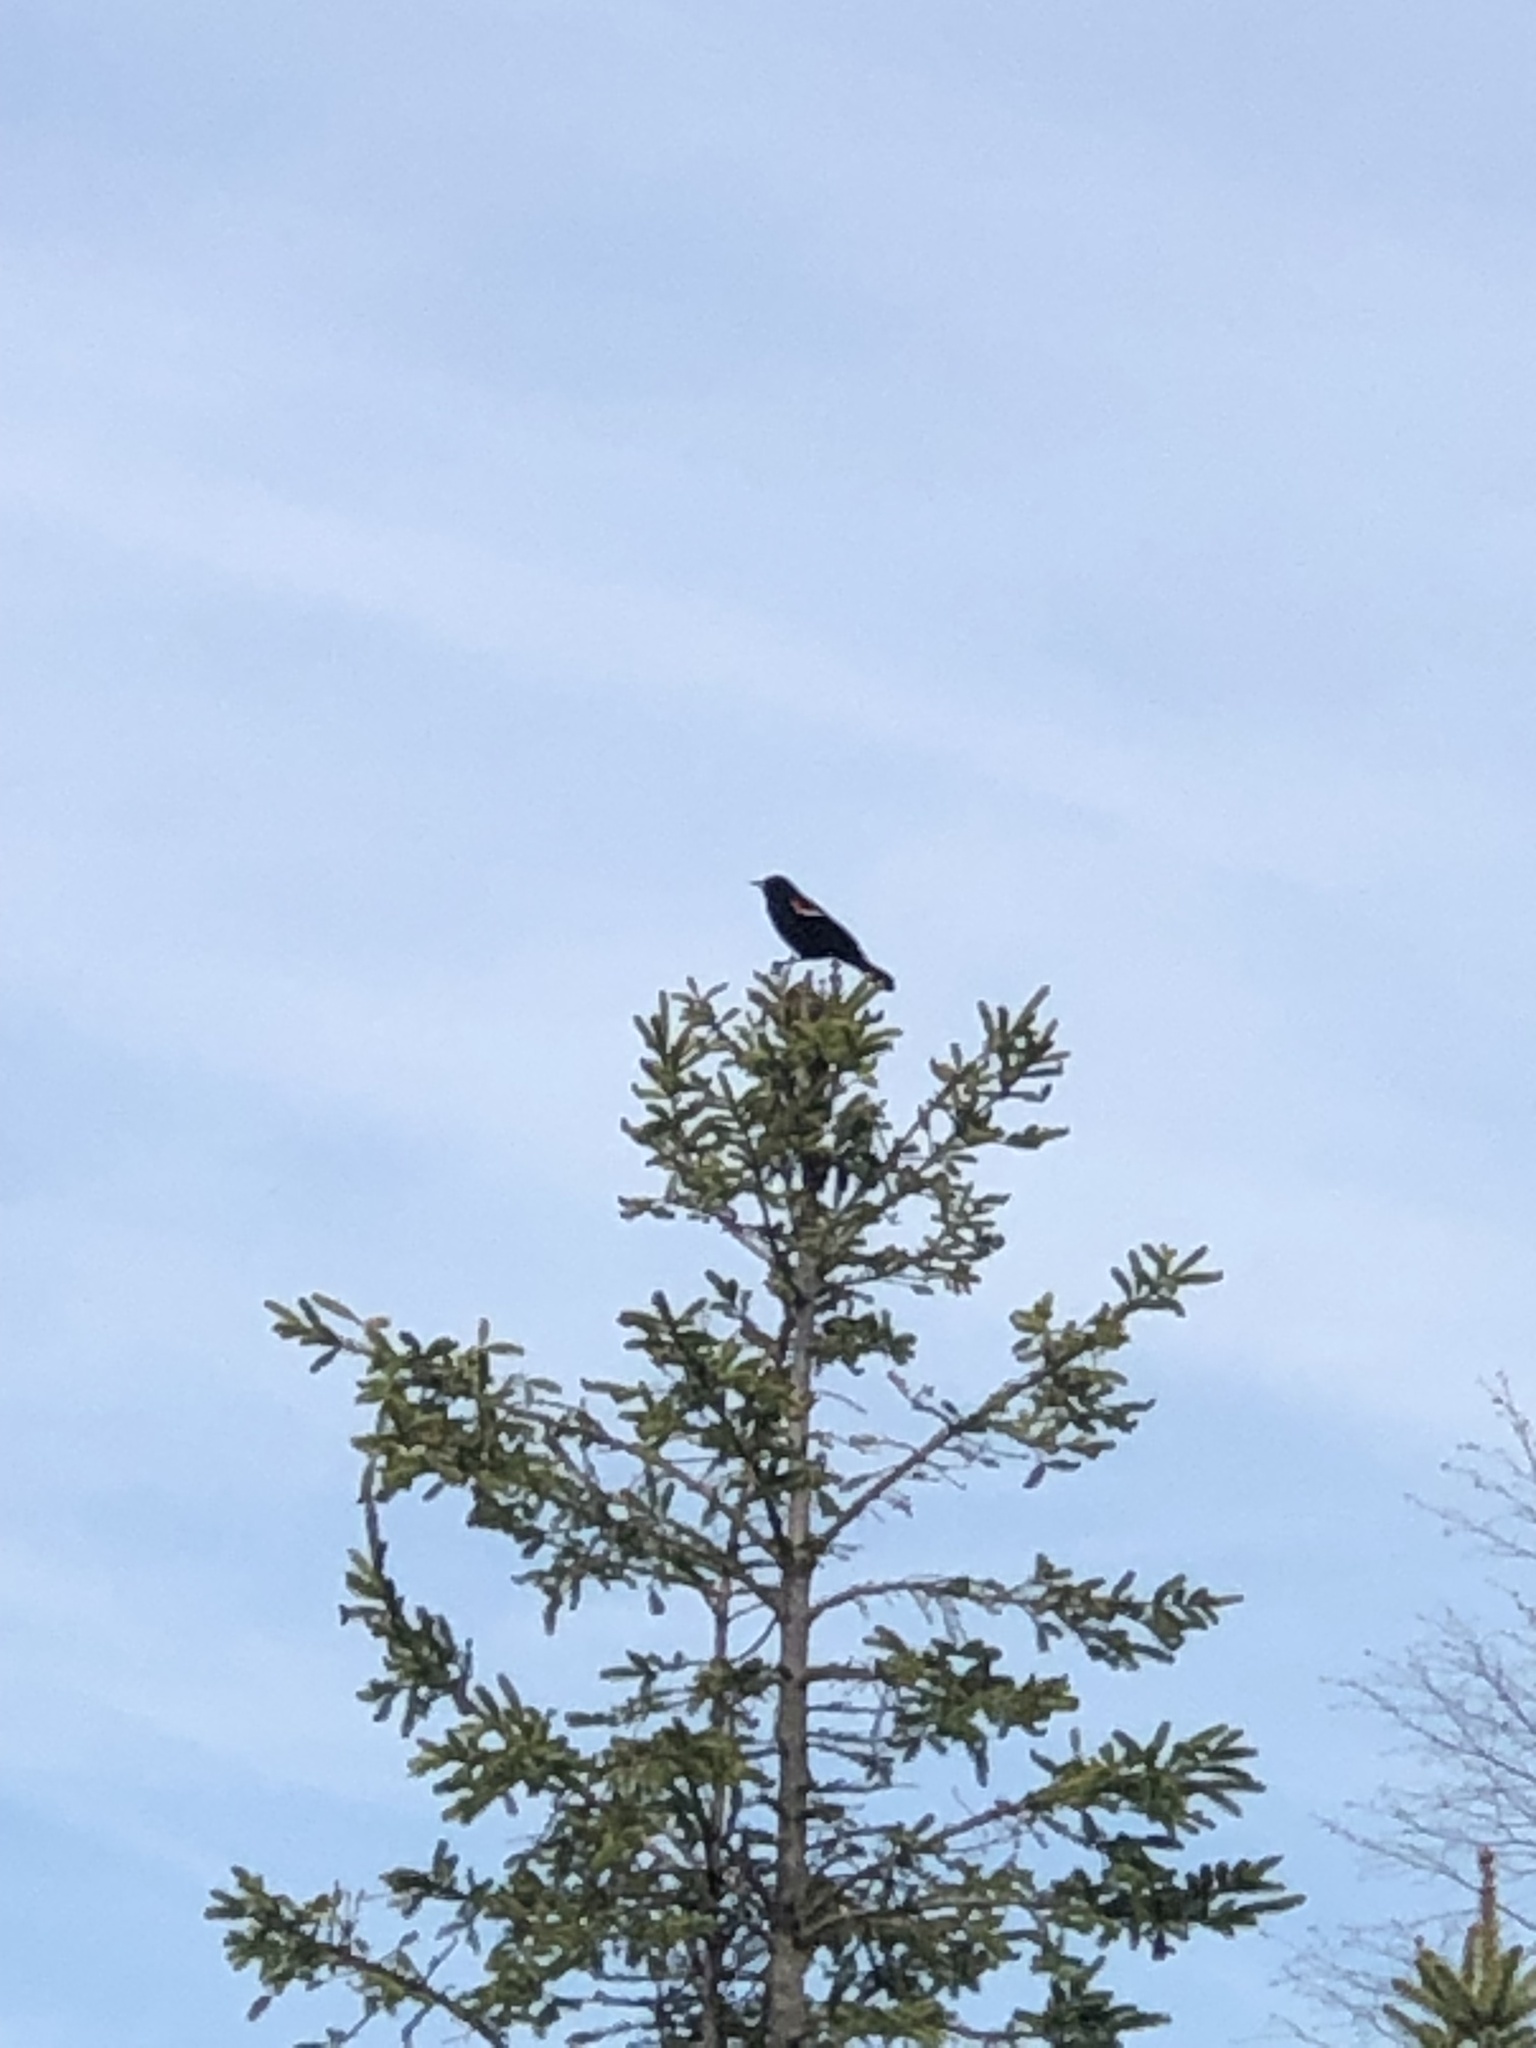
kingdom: Animalia
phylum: Chordata
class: Aves
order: Passeriformes
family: Icteridae
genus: Agelaius
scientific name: Agelaius phoeniceus
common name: Red-winged blackbird
